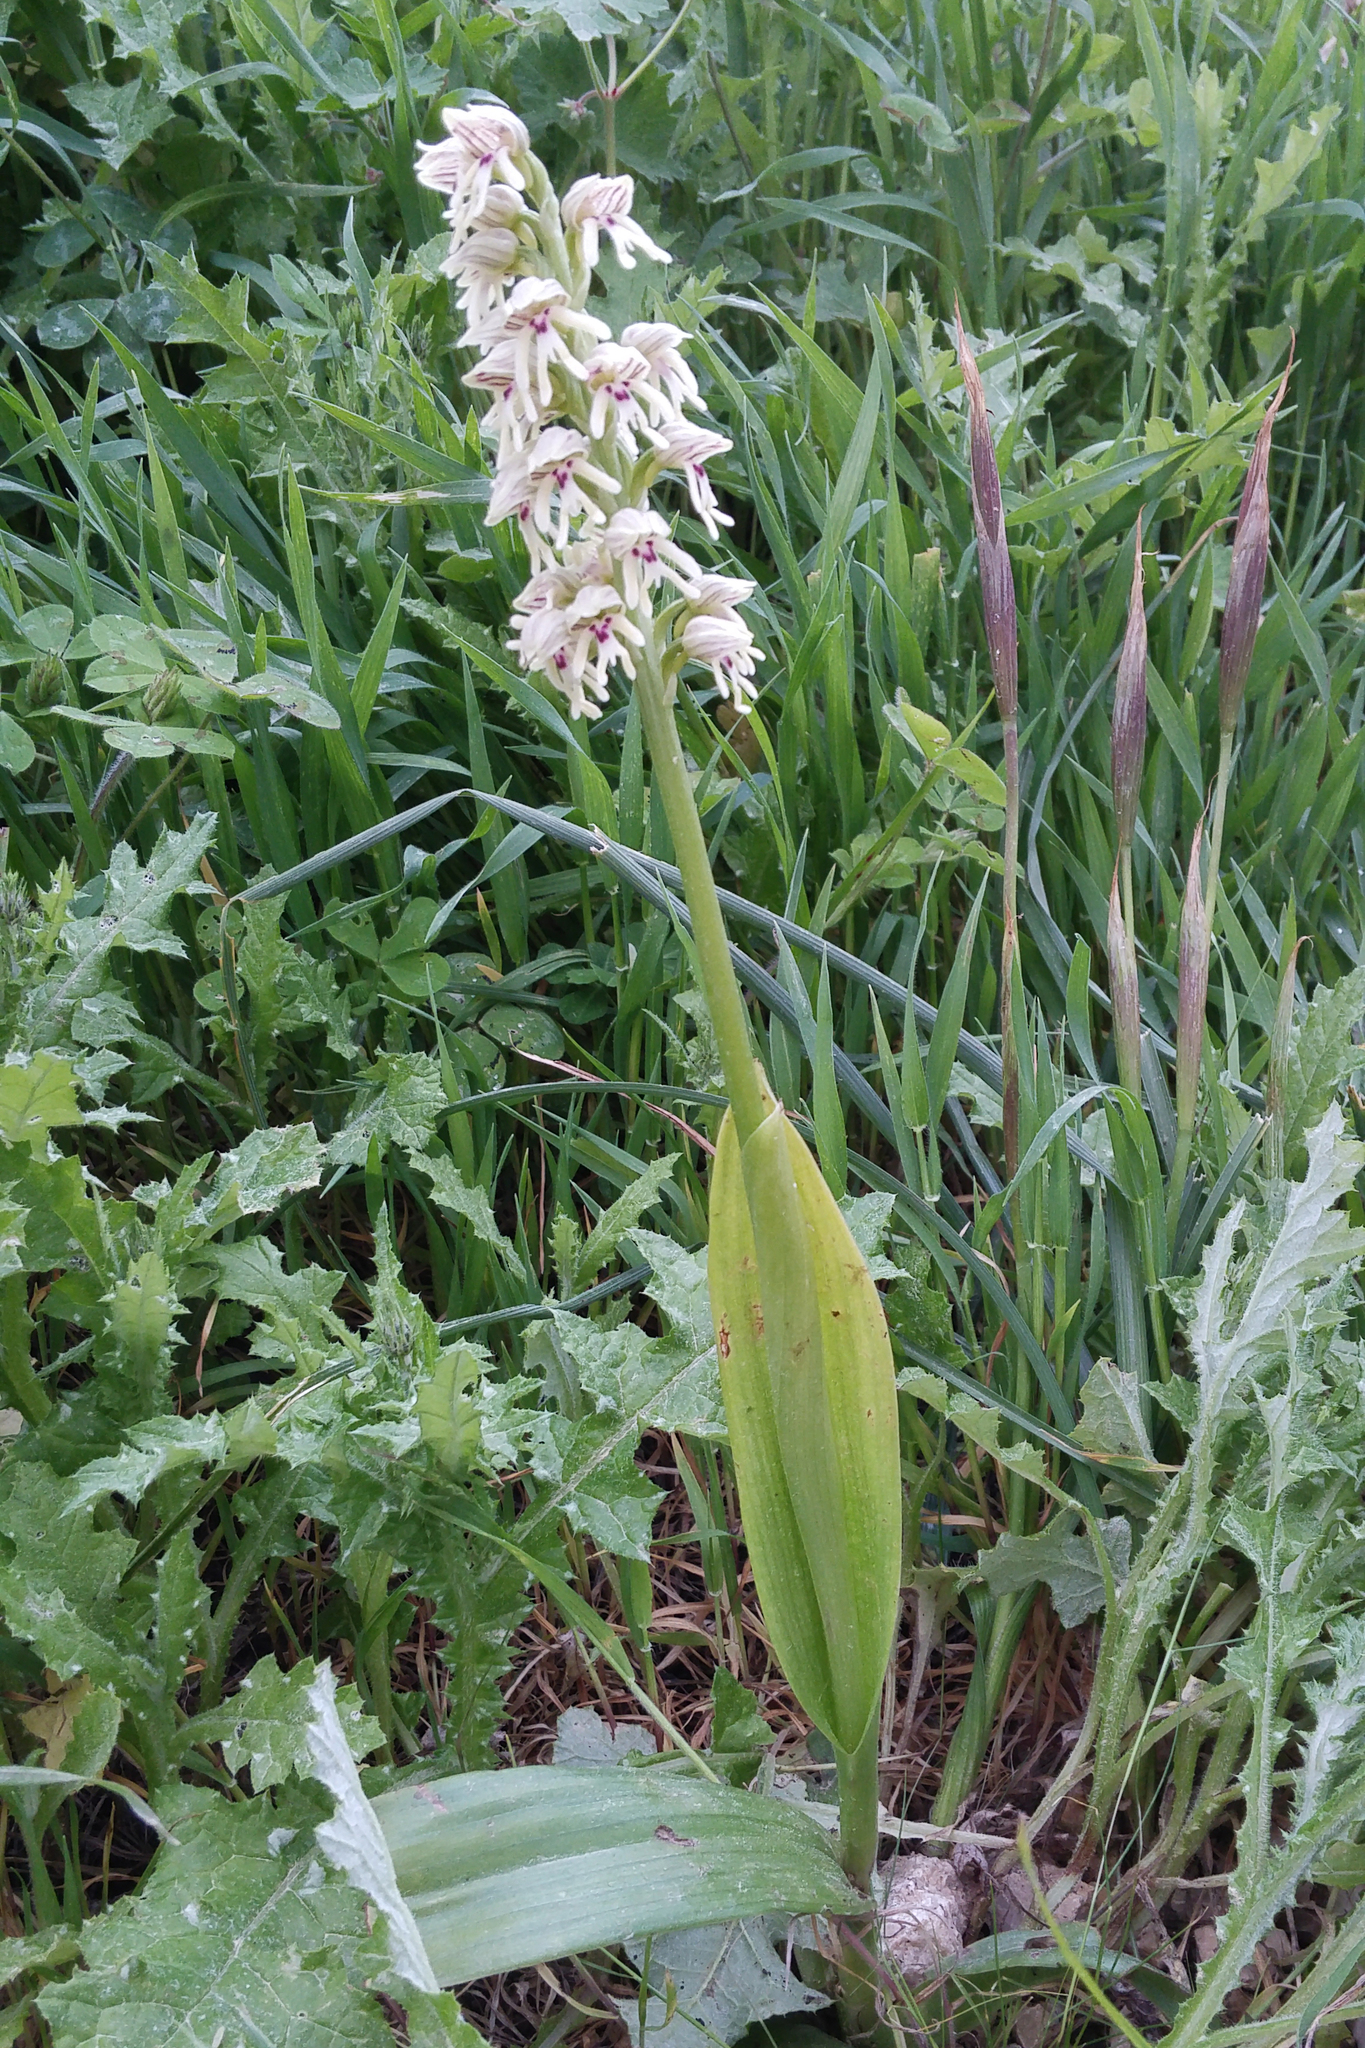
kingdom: Plantae
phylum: Tracheophyta
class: Liliopsida
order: Asparagales
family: Orchidaceae
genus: Orchis
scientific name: Orchis galilaea
